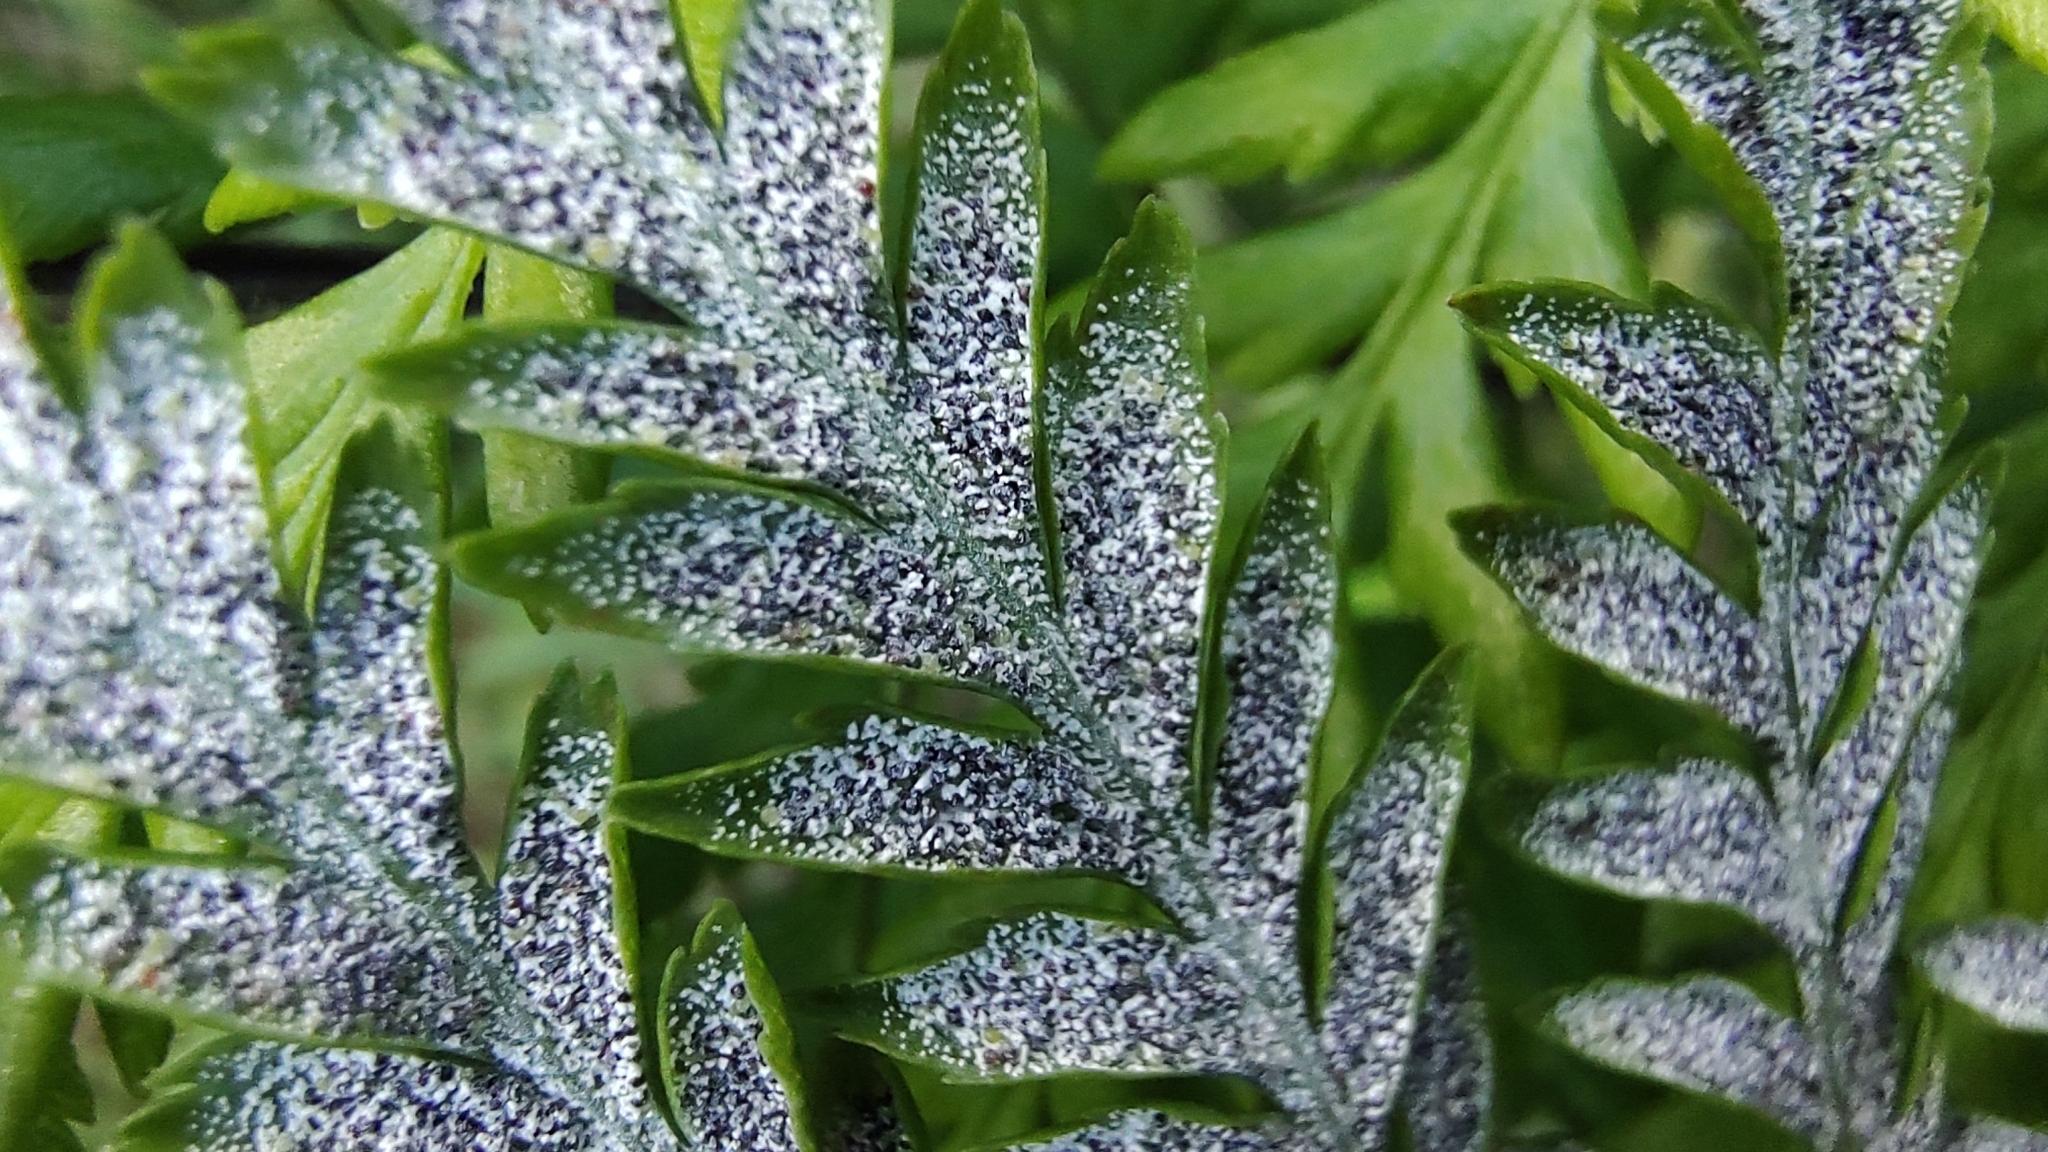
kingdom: Plantae
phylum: Tracheophyta
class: Polypodiopsida
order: Polypodiales
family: Pteridaceae
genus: Pityrogramma
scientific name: Pityrogramma calomelanos
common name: Dixie silverback fern
